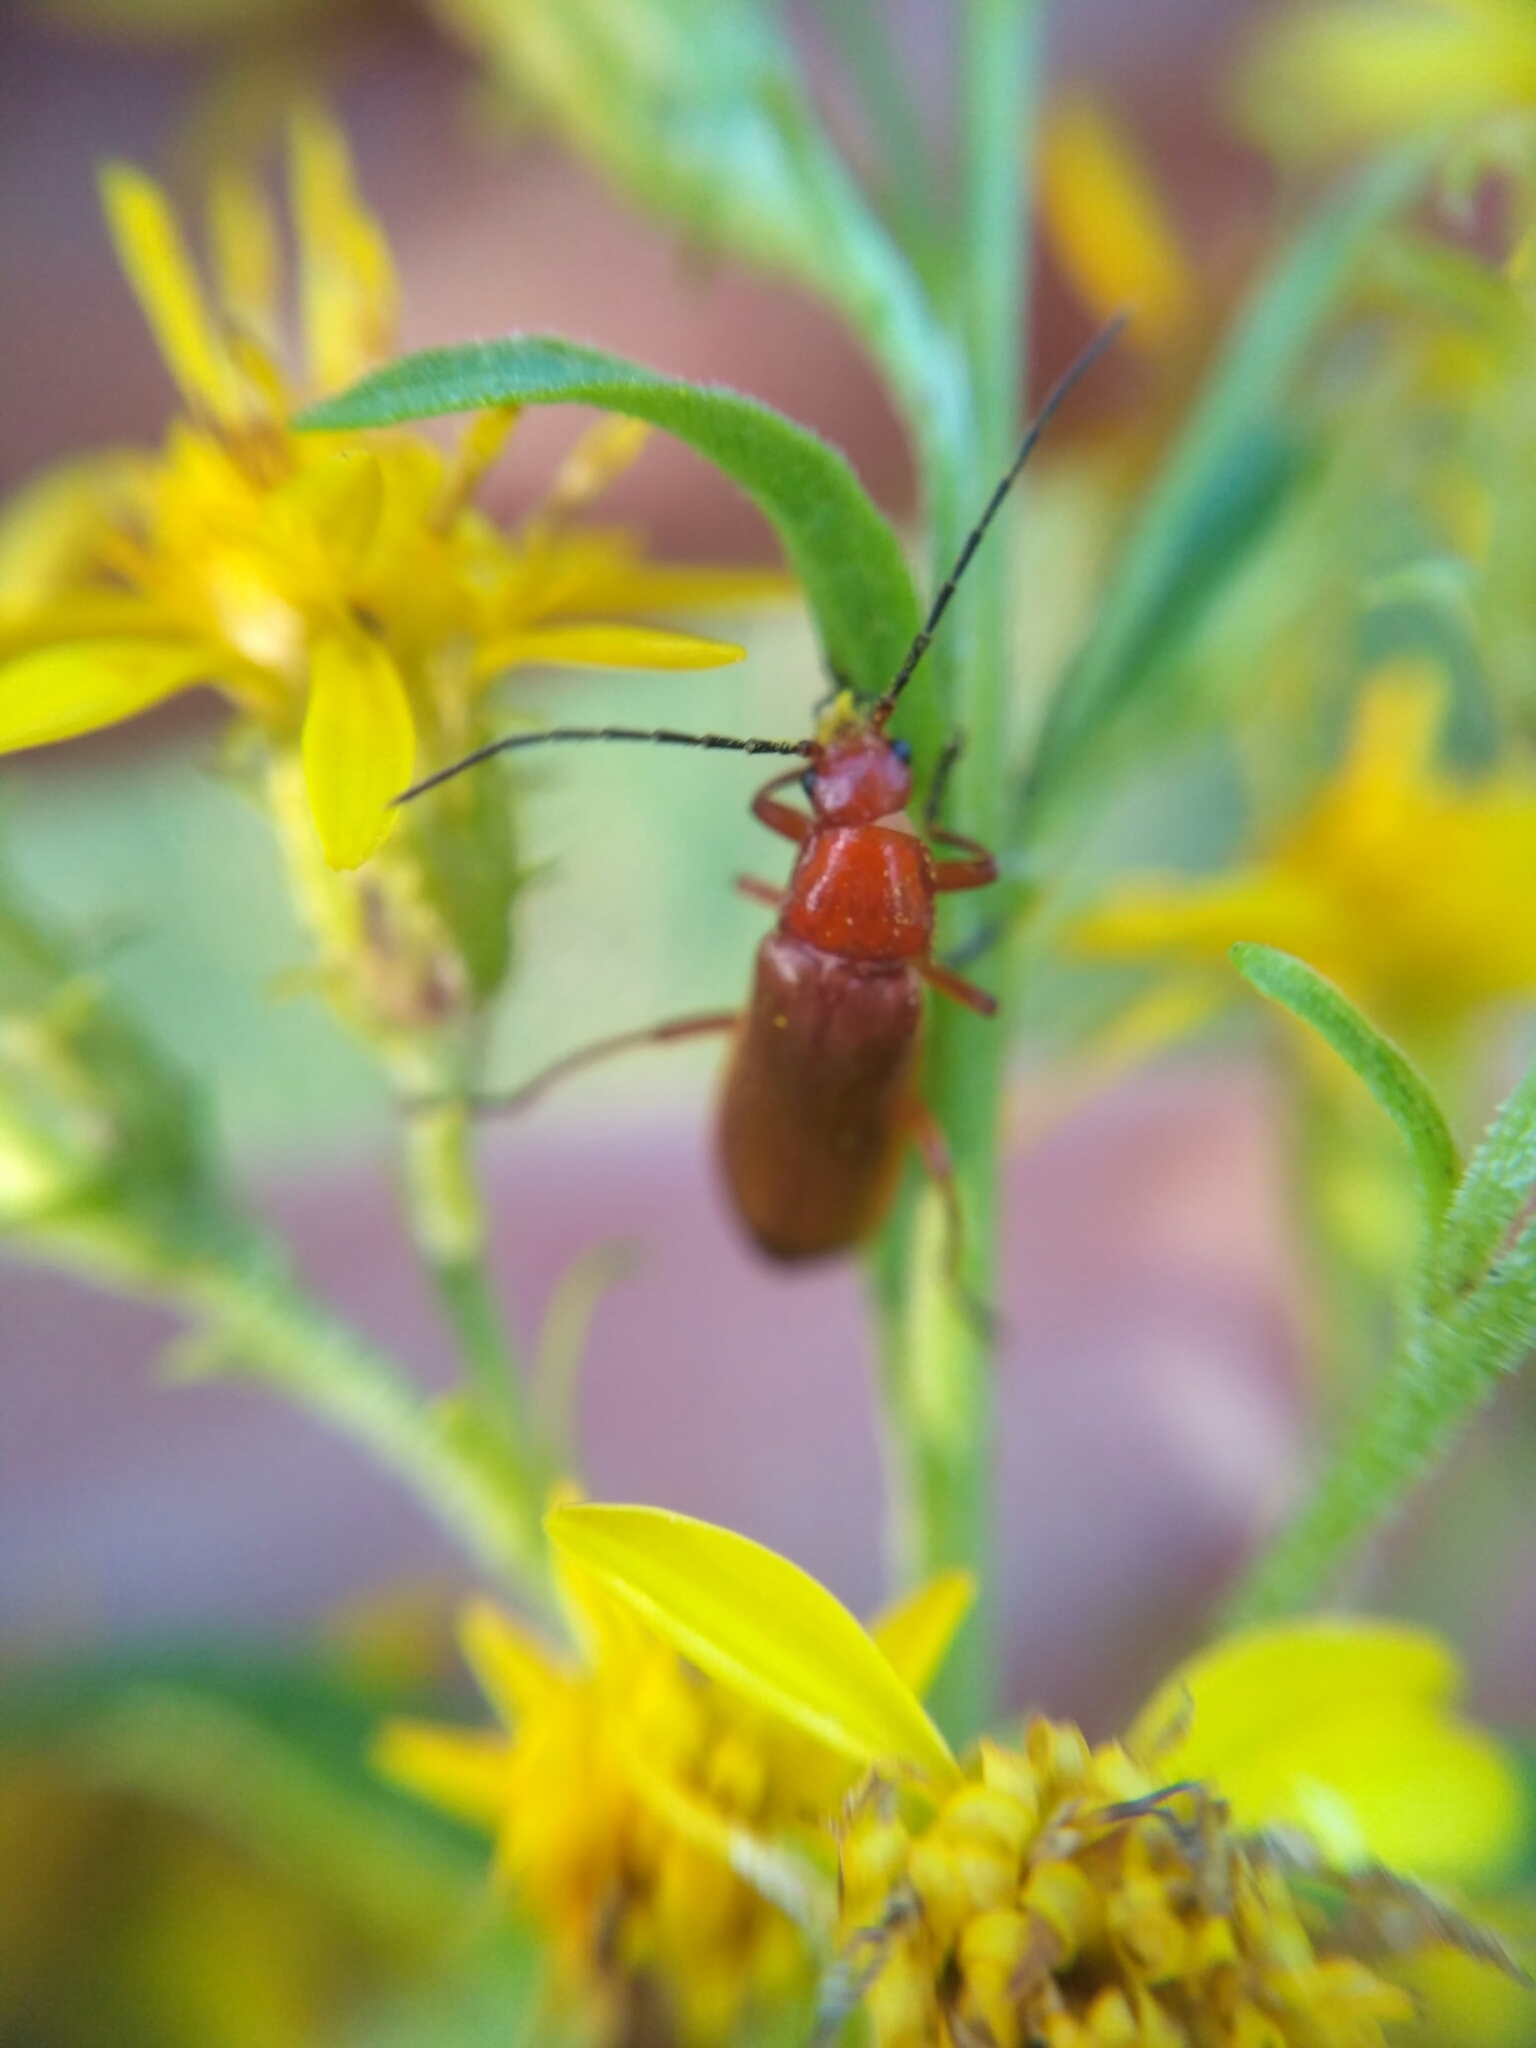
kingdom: Animalia
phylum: Arthropoda
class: Insecta
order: Coleoptera
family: Cantharidae
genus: Rhagonycha
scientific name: Rhagonycha fulva
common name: Common red soldier beetle
